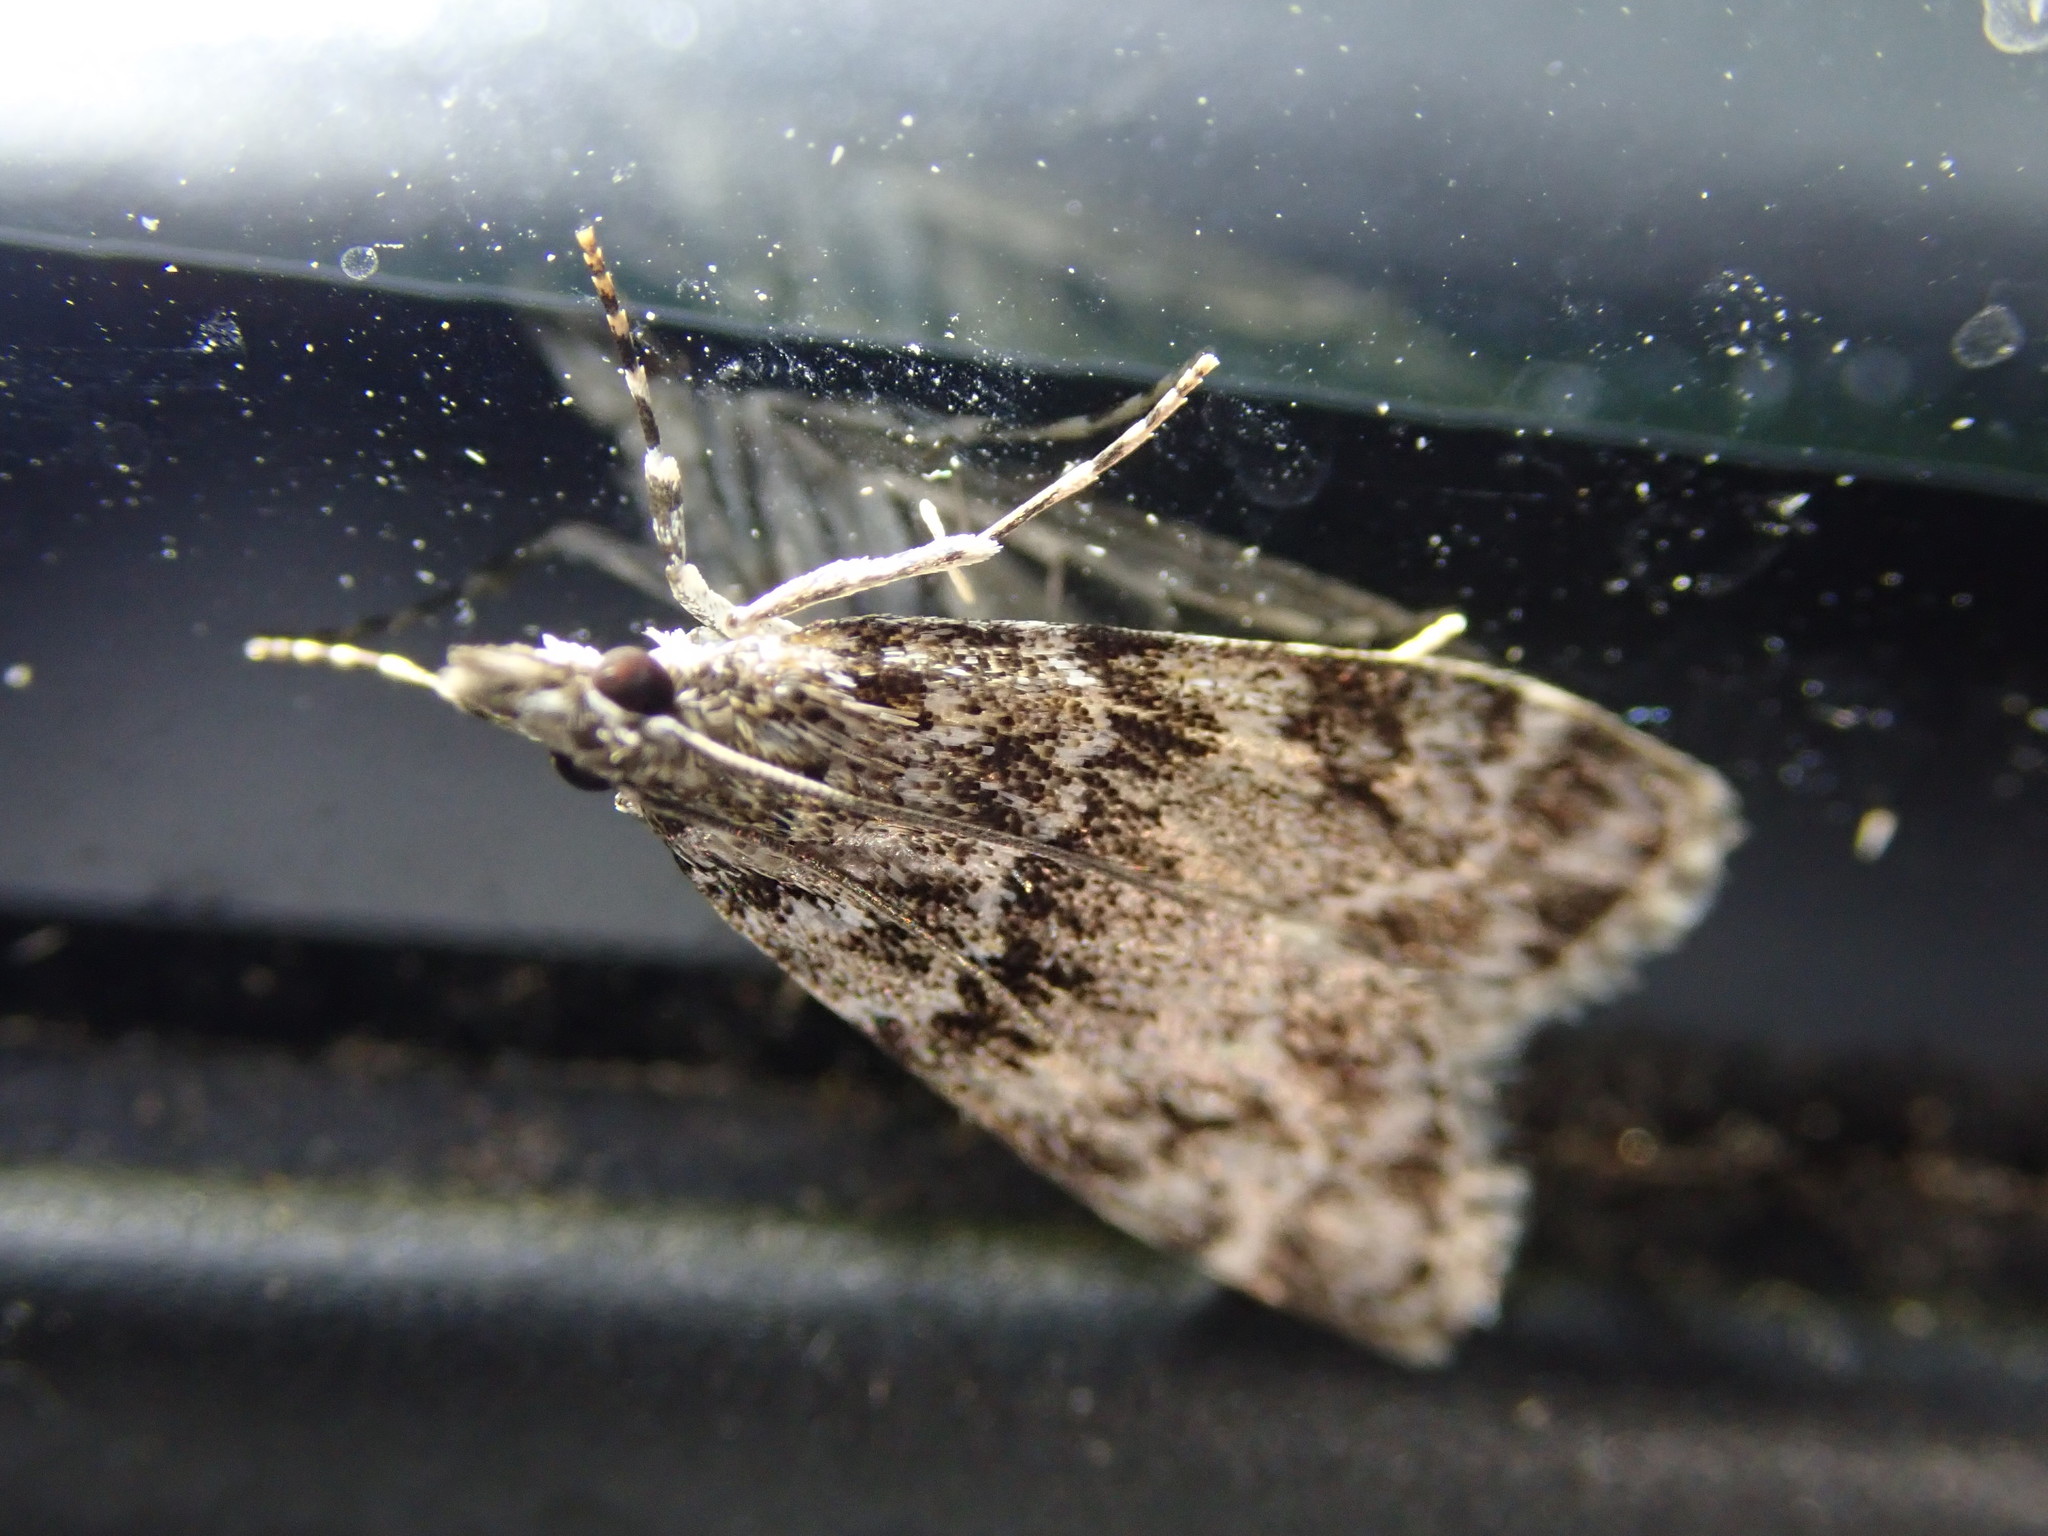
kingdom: Animalia
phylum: Arthropoda
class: Insecta
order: Lepidoptera
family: Crambidae
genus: Eudonia
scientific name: Eudonia mercurella
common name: Small grey
